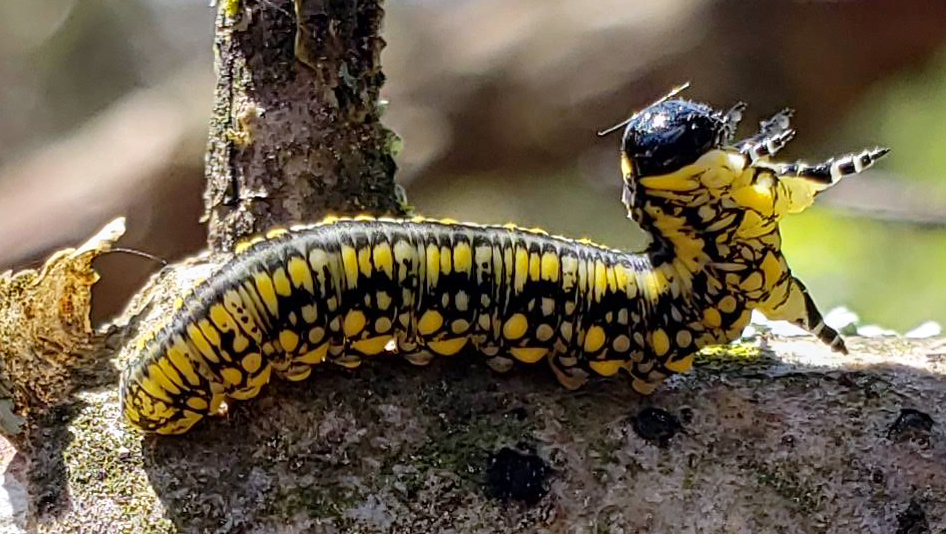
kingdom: Animalia
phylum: Arthropoda
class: Insecta
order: Hymenoptera
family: Diprionidae
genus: Diprion
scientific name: Diprion similis
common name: Pine sawfly
